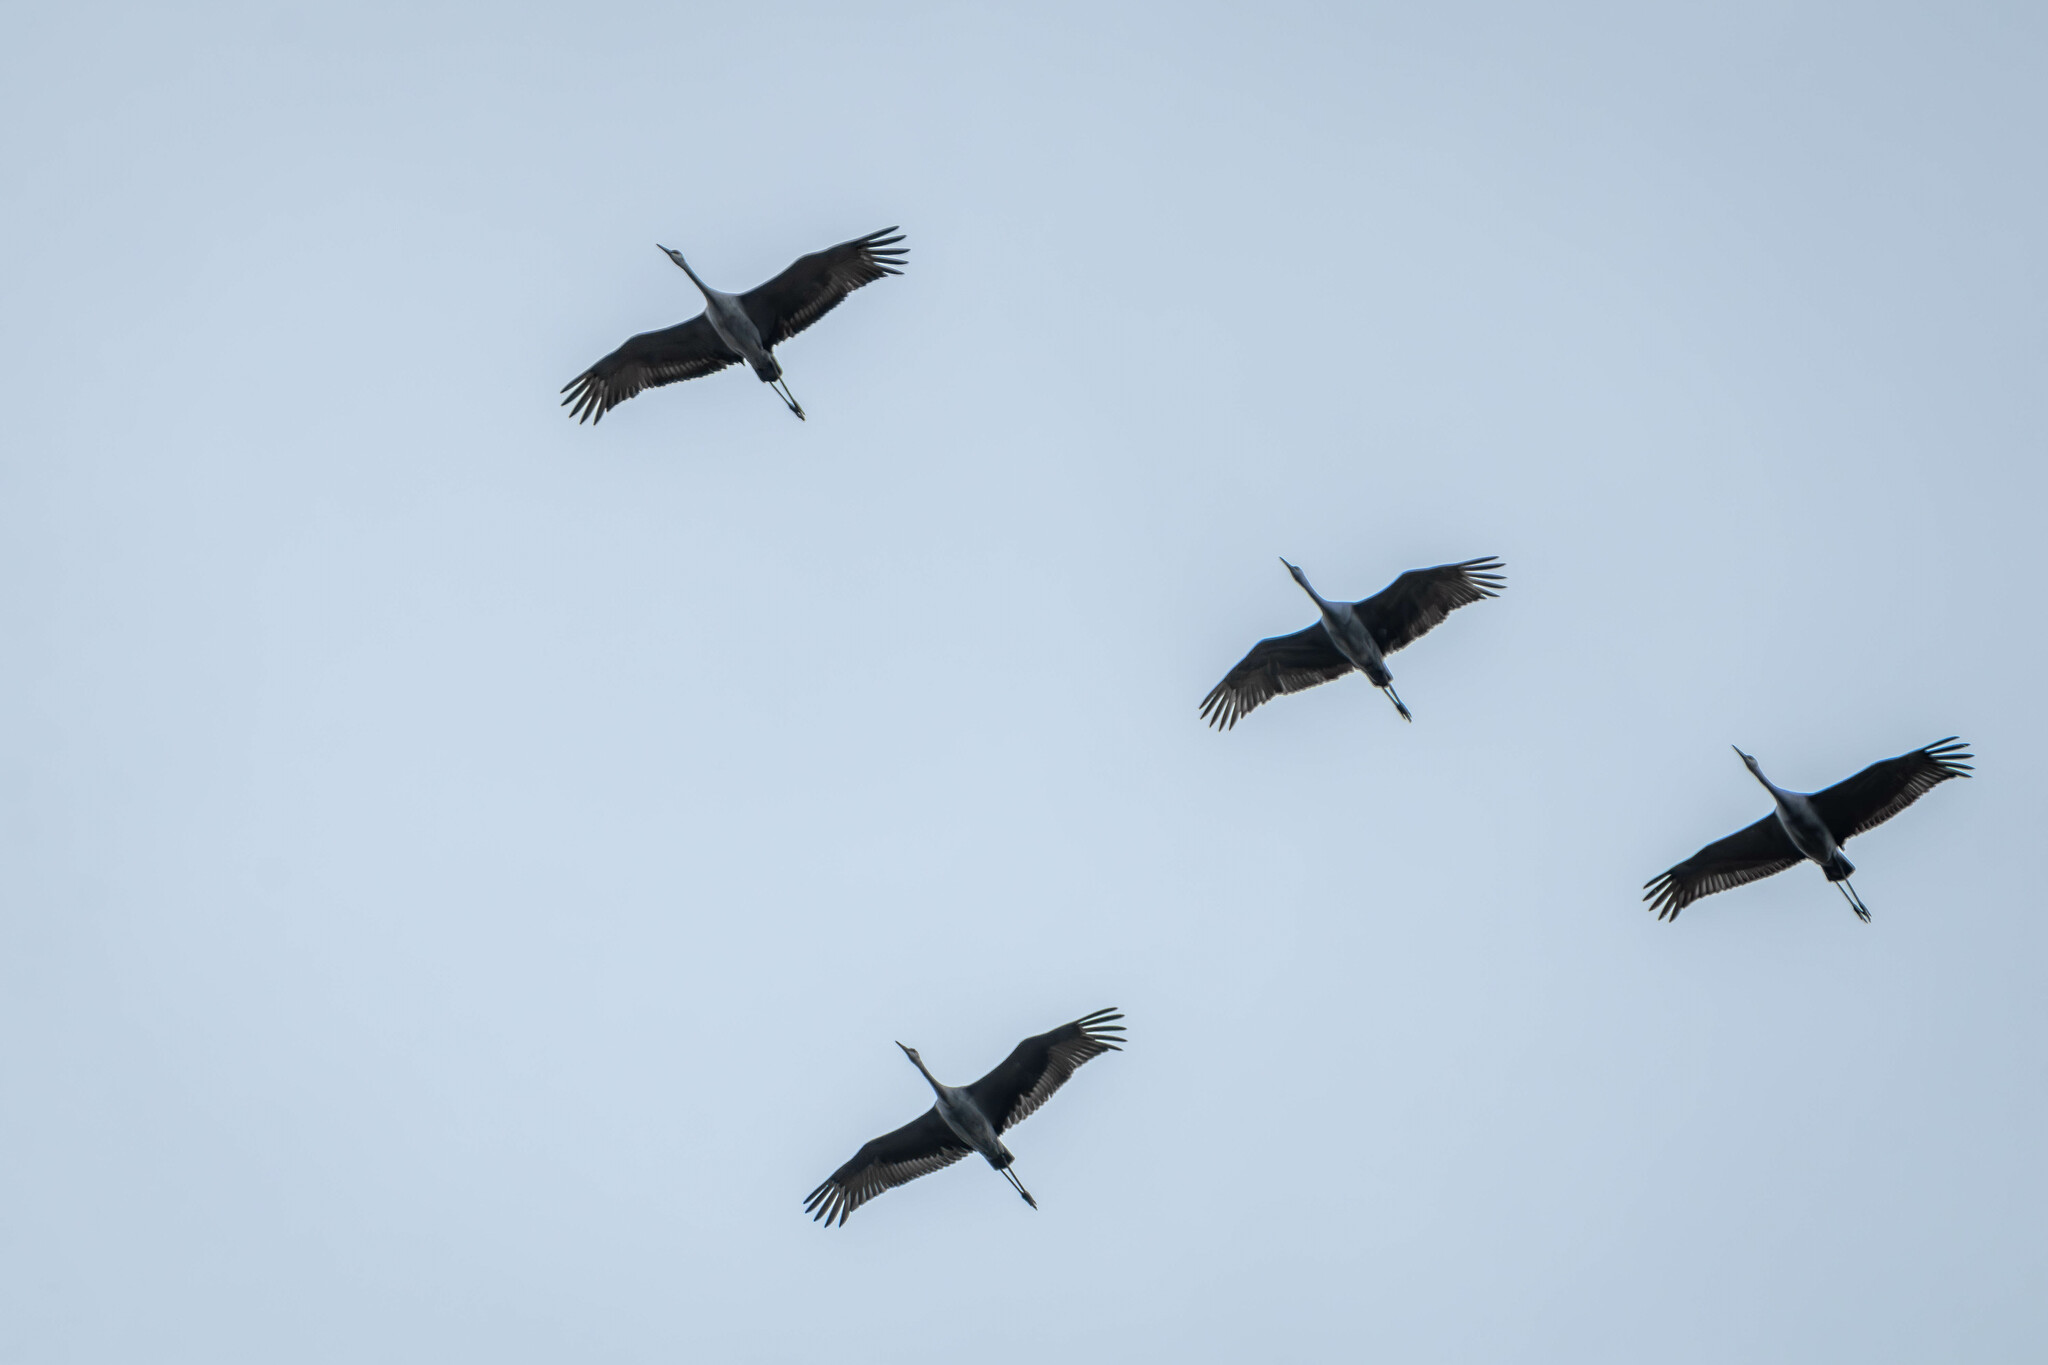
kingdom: Animalia
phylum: Chordata
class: Aves
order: Gruiformes
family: Gruidae
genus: Grus
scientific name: Grus canadensis
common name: Sandhill crane
